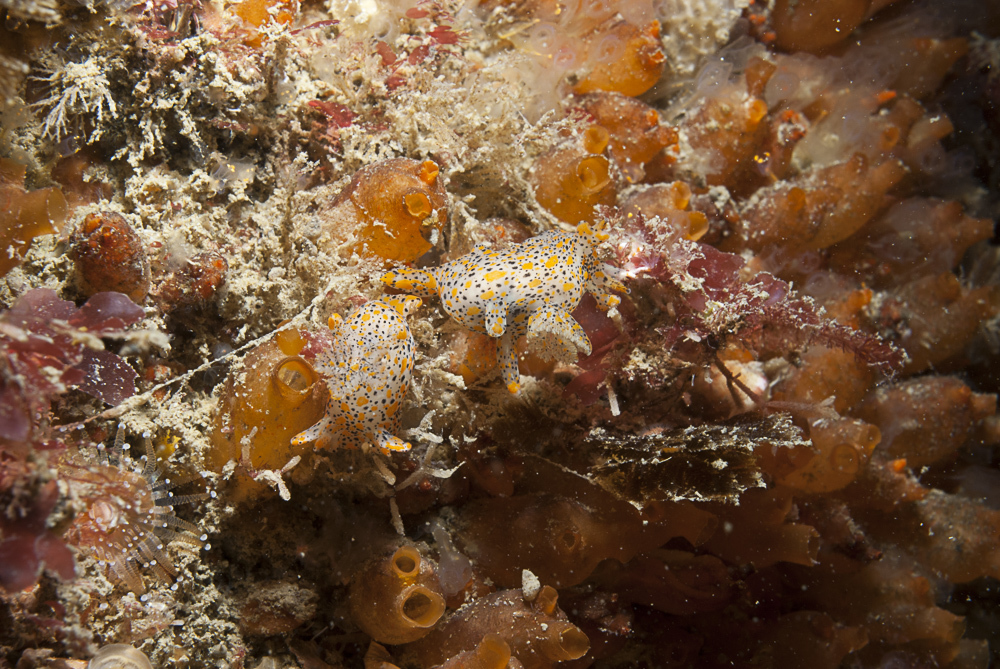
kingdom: Animalia
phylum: Mollusca
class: Gastropoda
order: Nudibranchia
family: Polyceridae
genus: Thecacera
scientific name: Thecacera pennigera
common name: Thecacera
